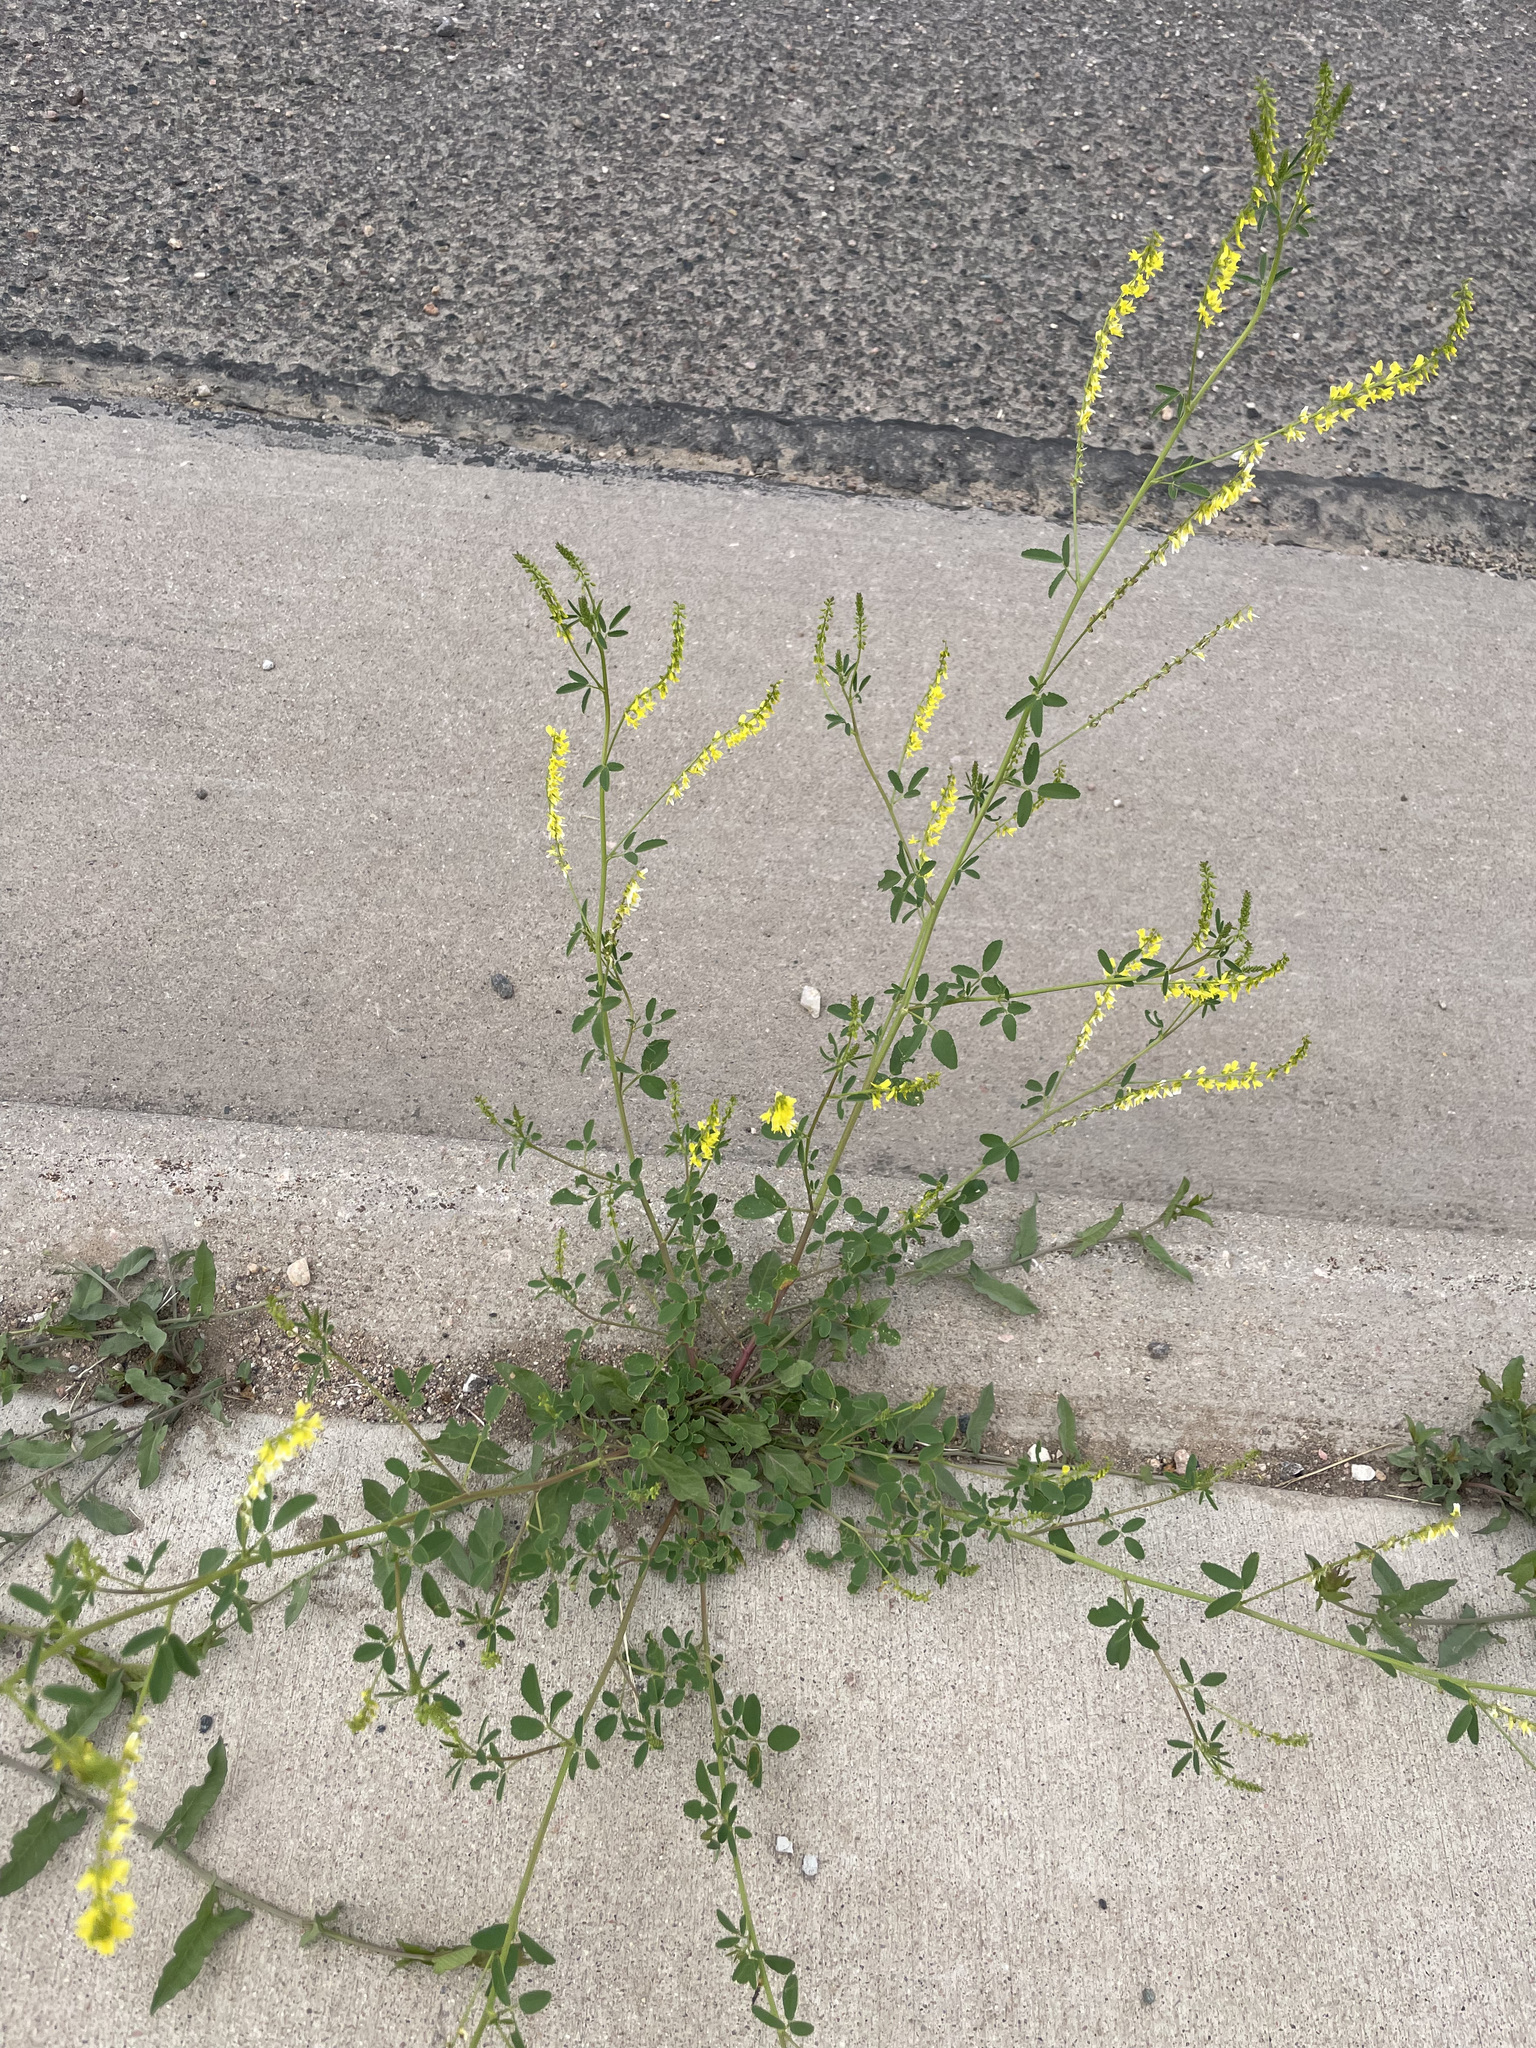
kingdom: Plantae
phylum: Tracheophyta
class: Magnoliopsida
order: Fabales
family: Fabaceae
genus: Melilotus
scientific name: Melilotus officinalis
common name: Sweetclover
